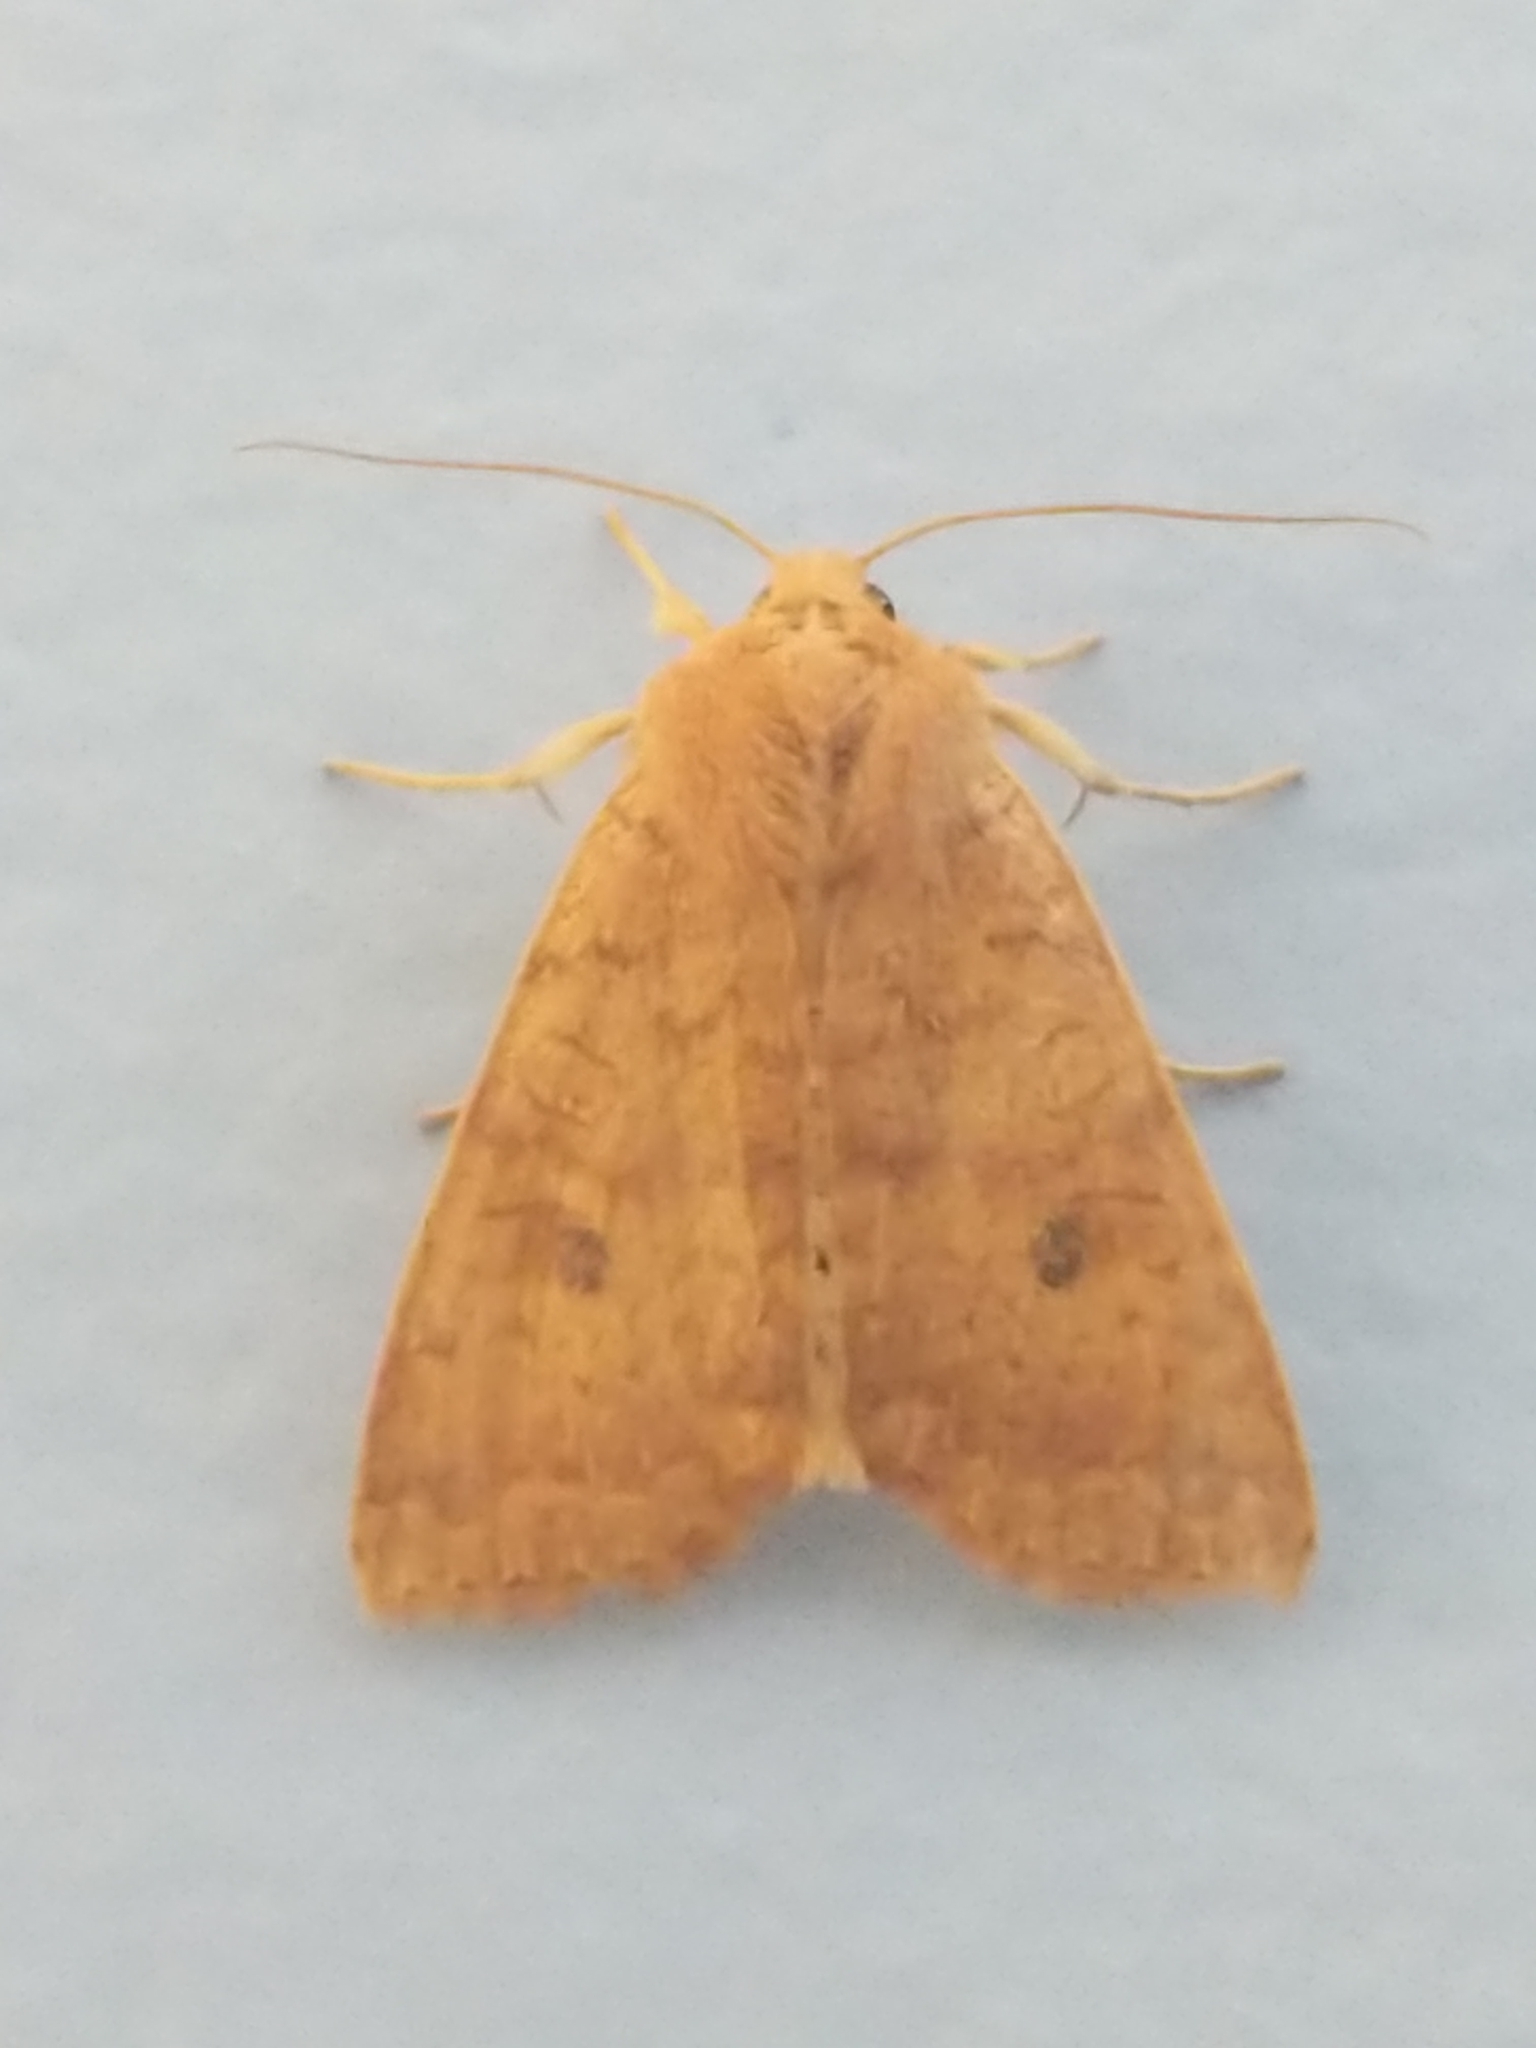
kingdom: Animalia
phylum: Arthropoda
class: Insecta
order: Lepidoptera
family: Noctuidae
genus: Agrochola
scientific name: Agrochola bicolorago
